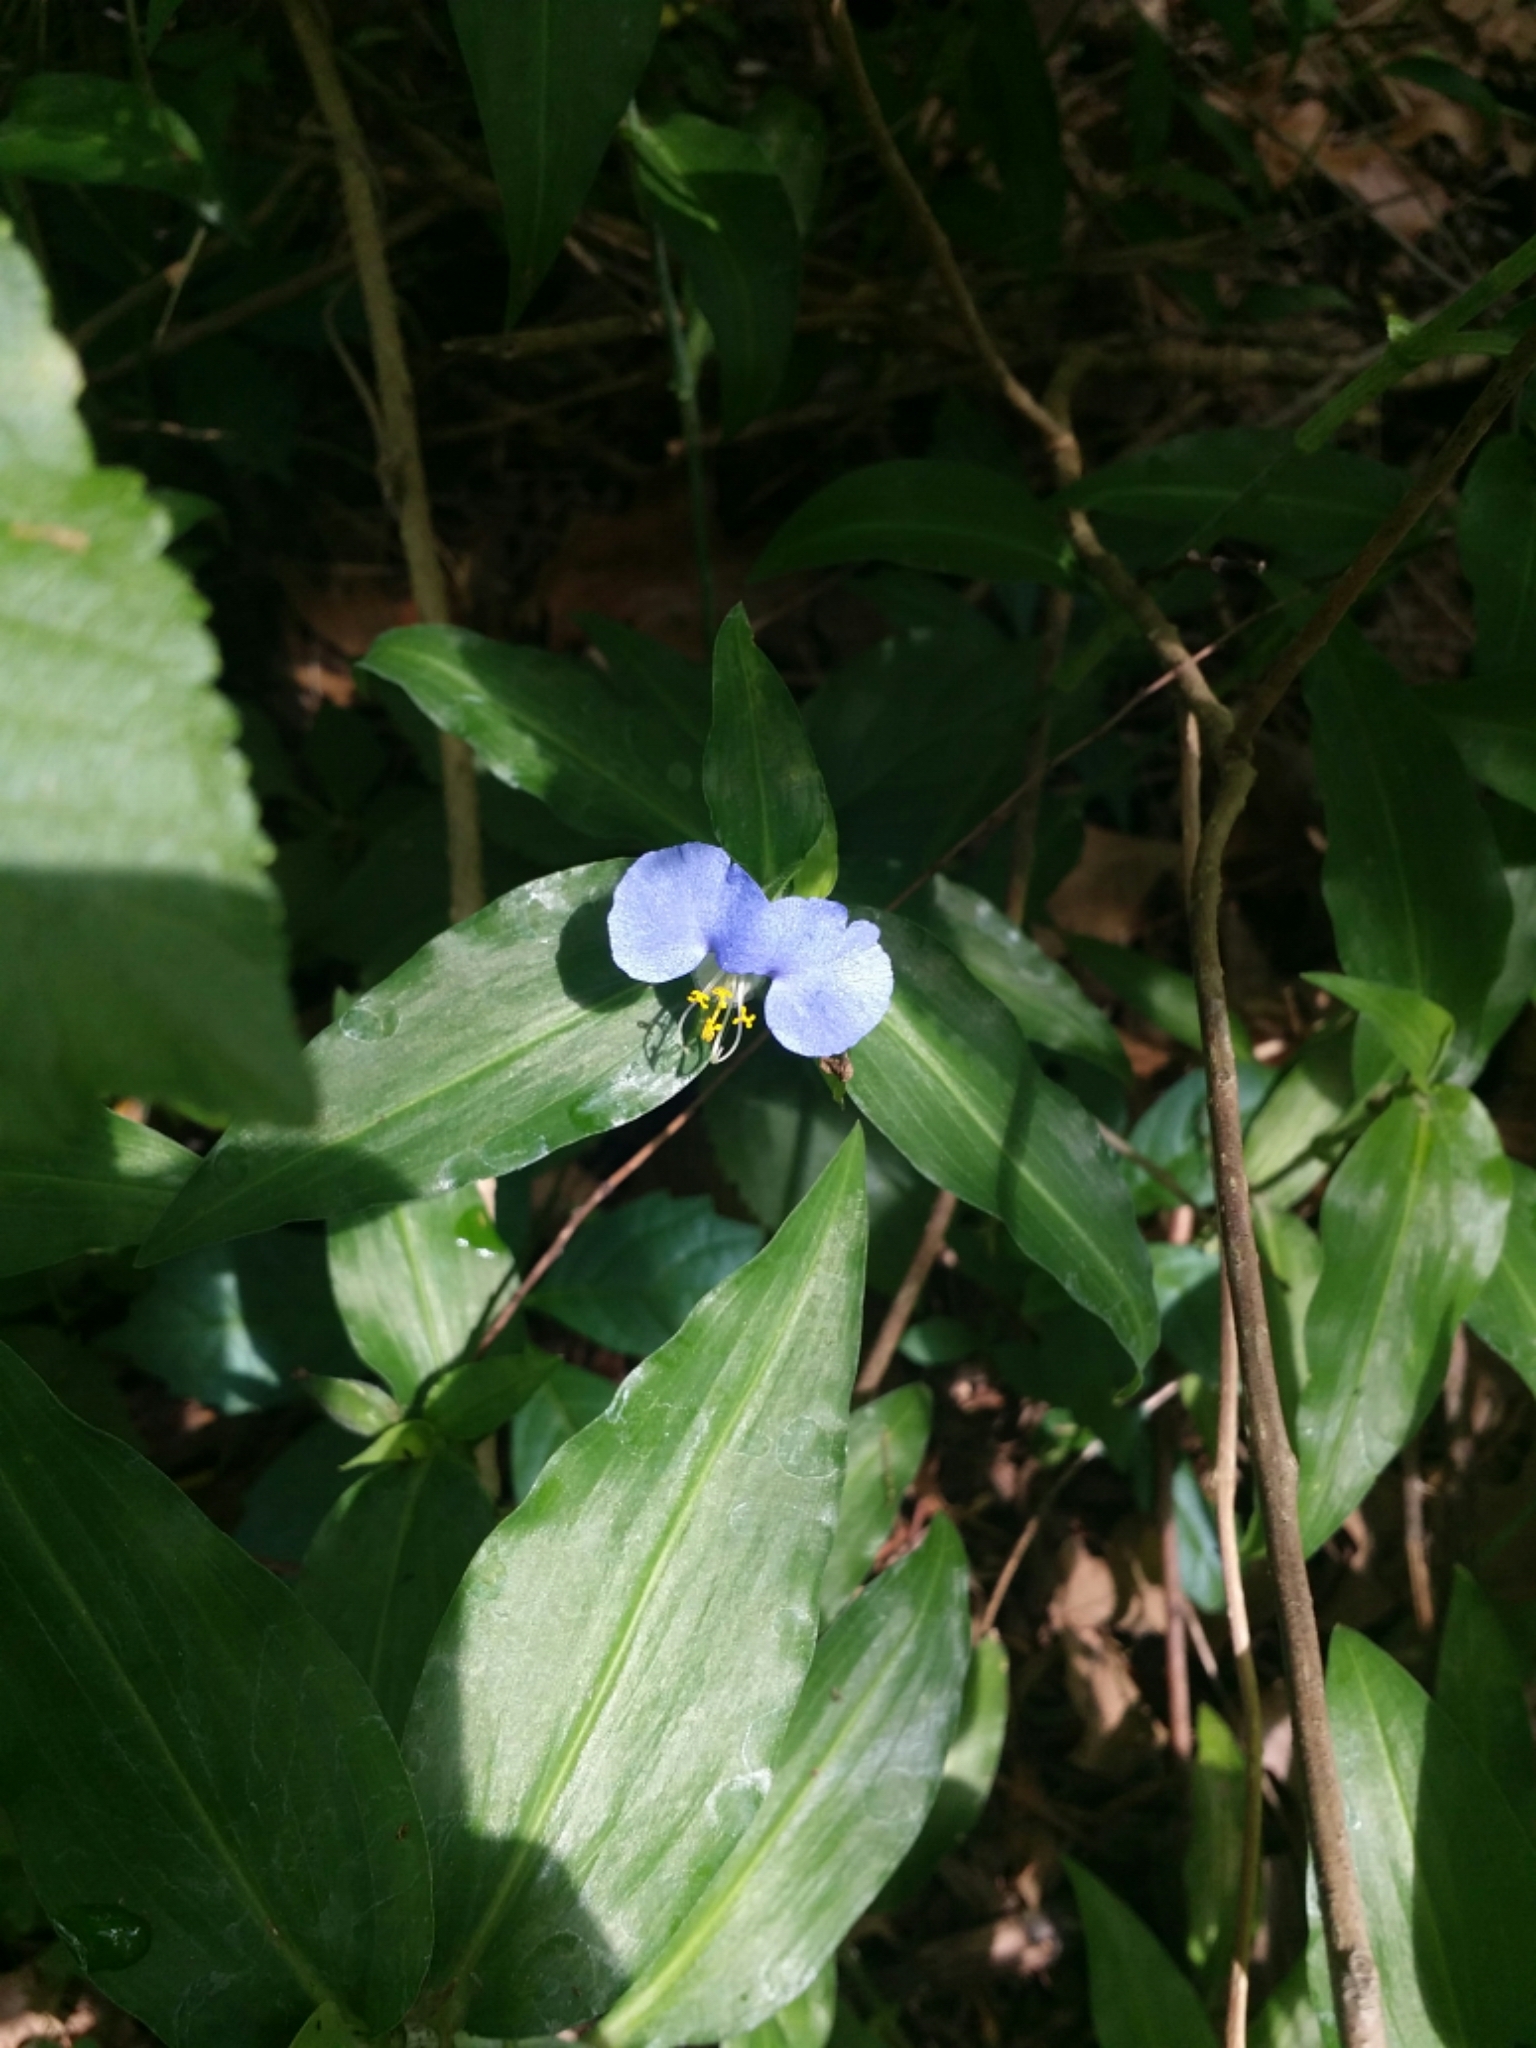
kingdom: Plantae
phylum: Tracheophyta
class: Liliopsida
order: Commelinales
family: Commelinaceae
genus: Commelina
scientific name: Commelina erecta
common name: Blousel blommetjie
